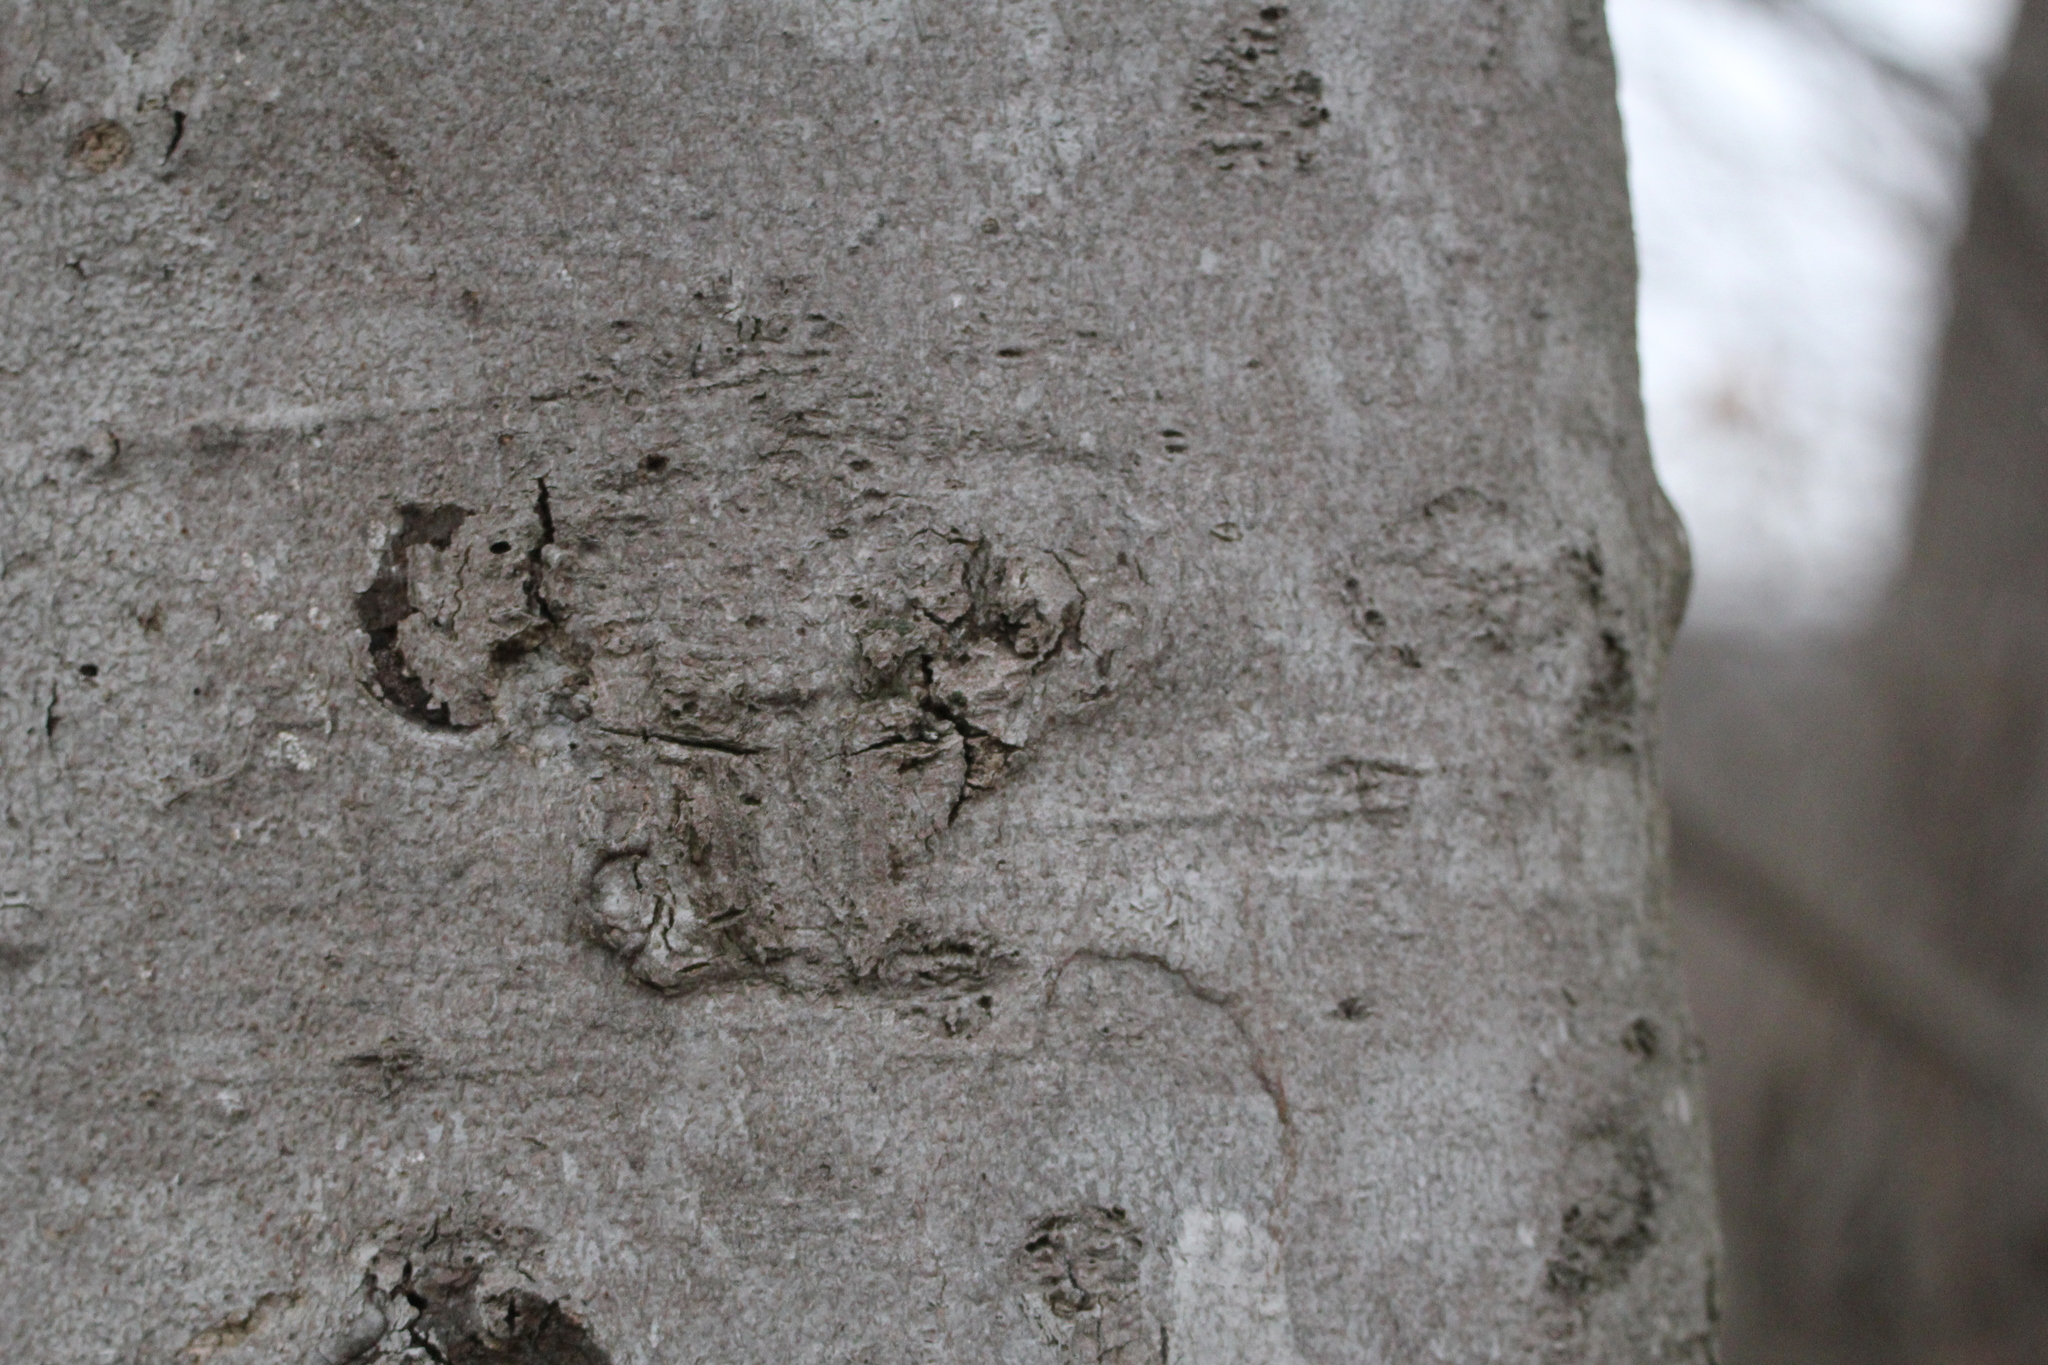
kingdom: Plantae
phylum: Tracheophyta
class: Magnoliopsida
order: Fagales
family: Fagaceae
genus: Fagus
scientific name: Fagus grandifolia
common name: American beech
